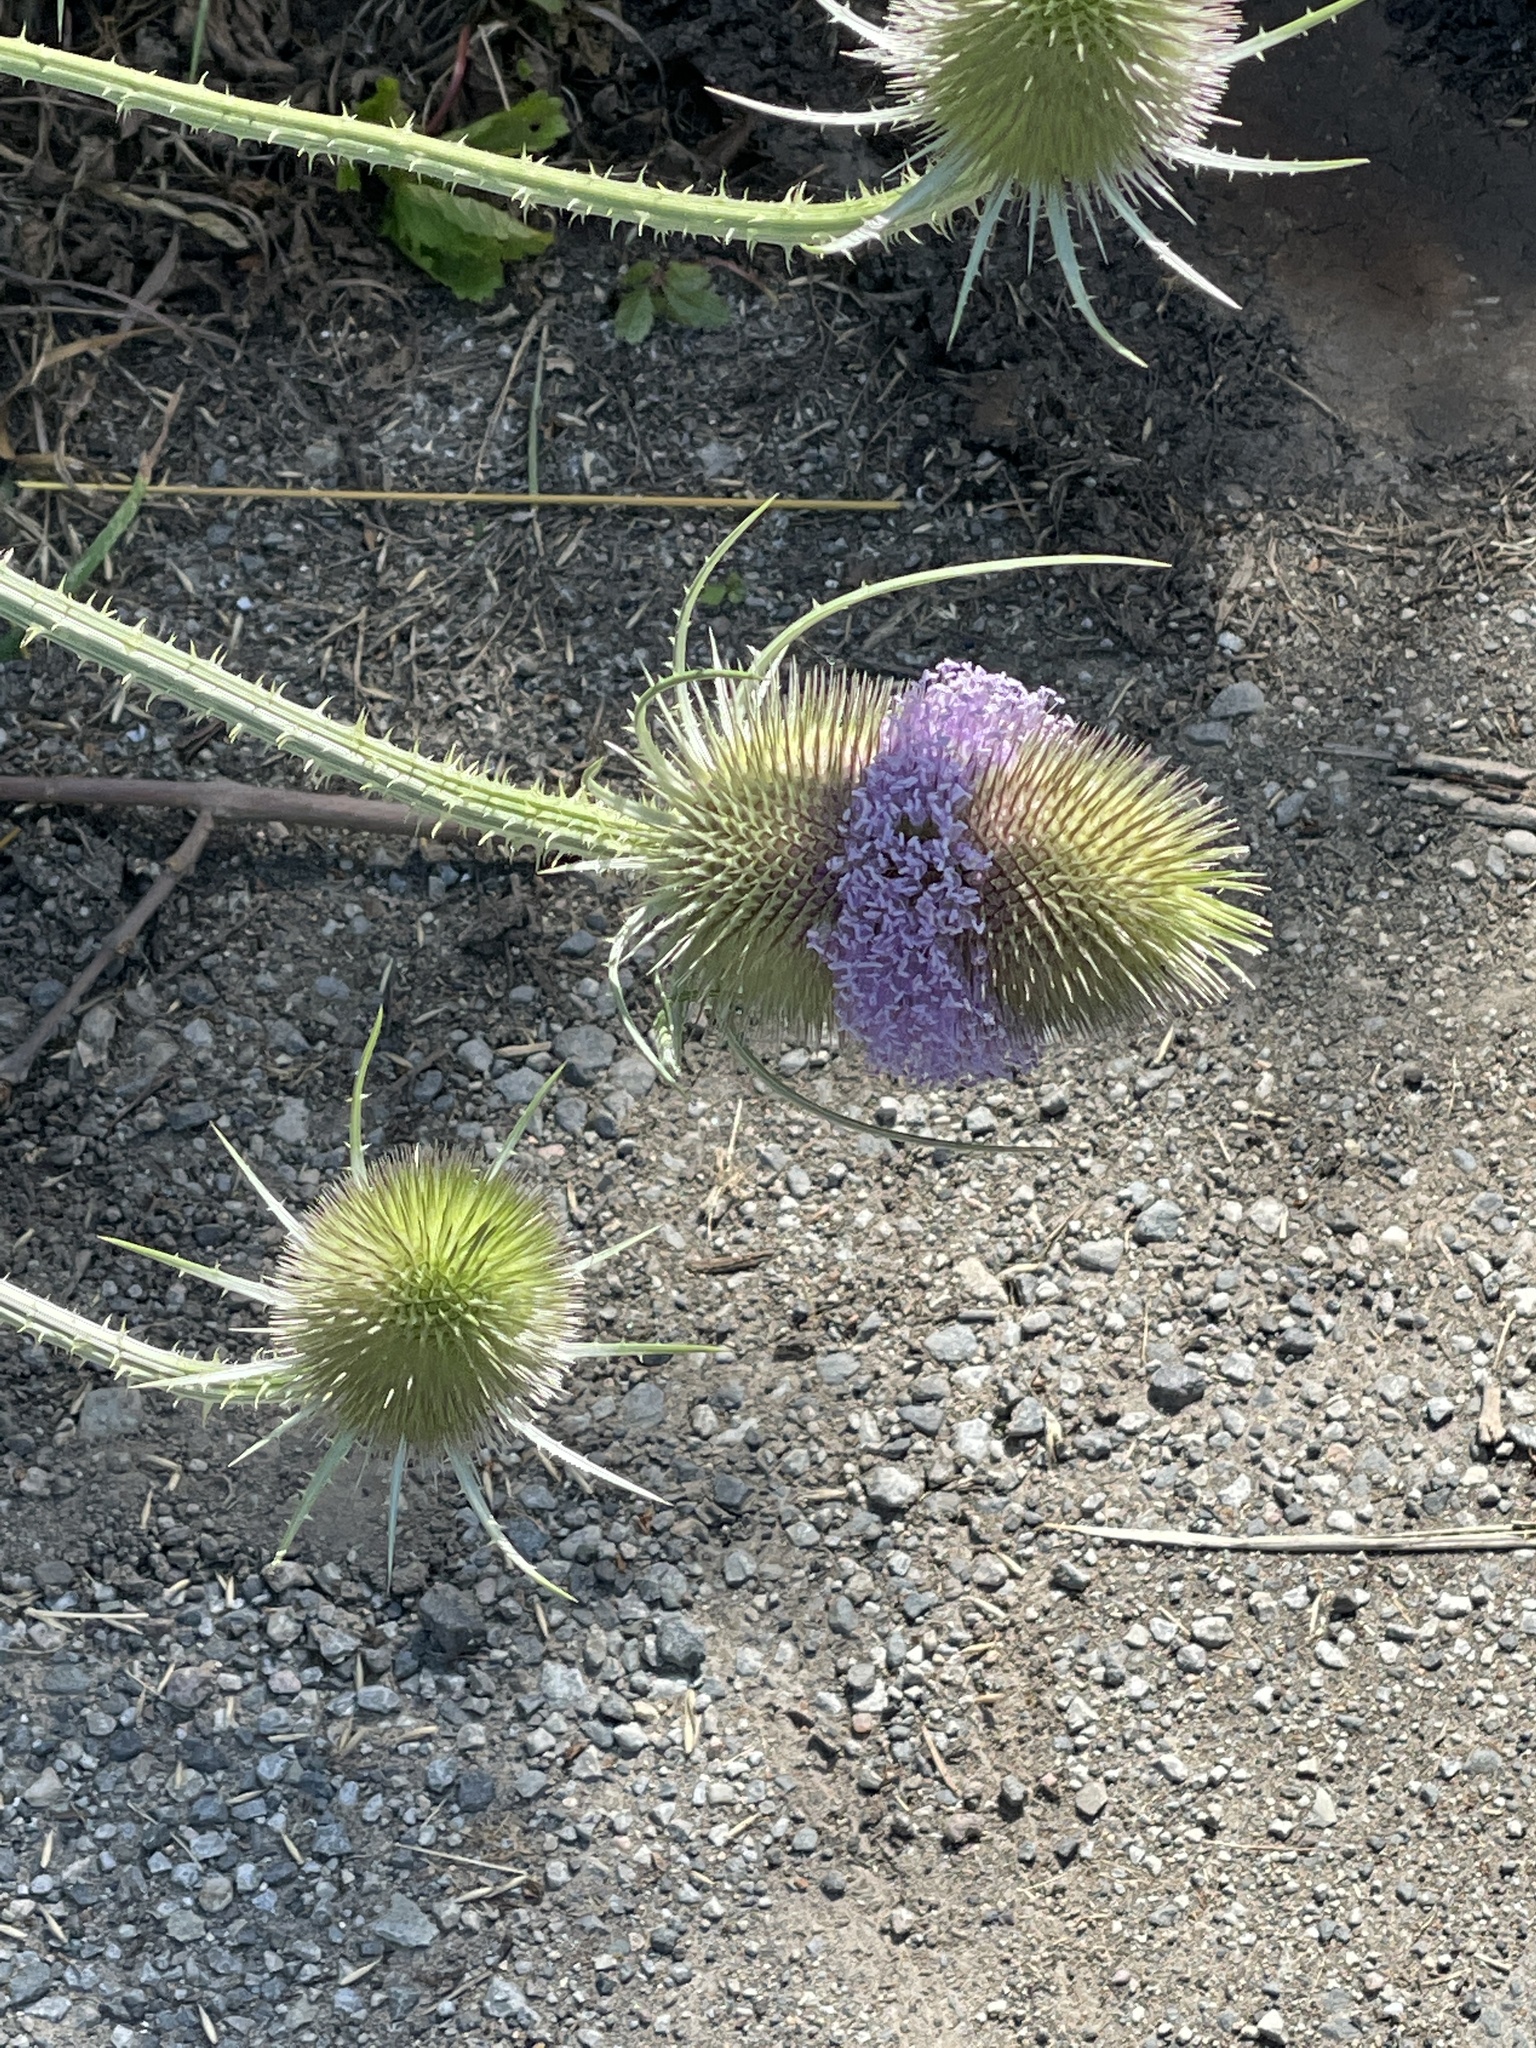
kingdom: Plantae
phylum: Tracheophyta
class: Magnoliopsida
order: Dipsacales
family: Caprifoliaceae
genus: Dipsacus
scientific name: Dipsacus fullonum
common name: Teasel
